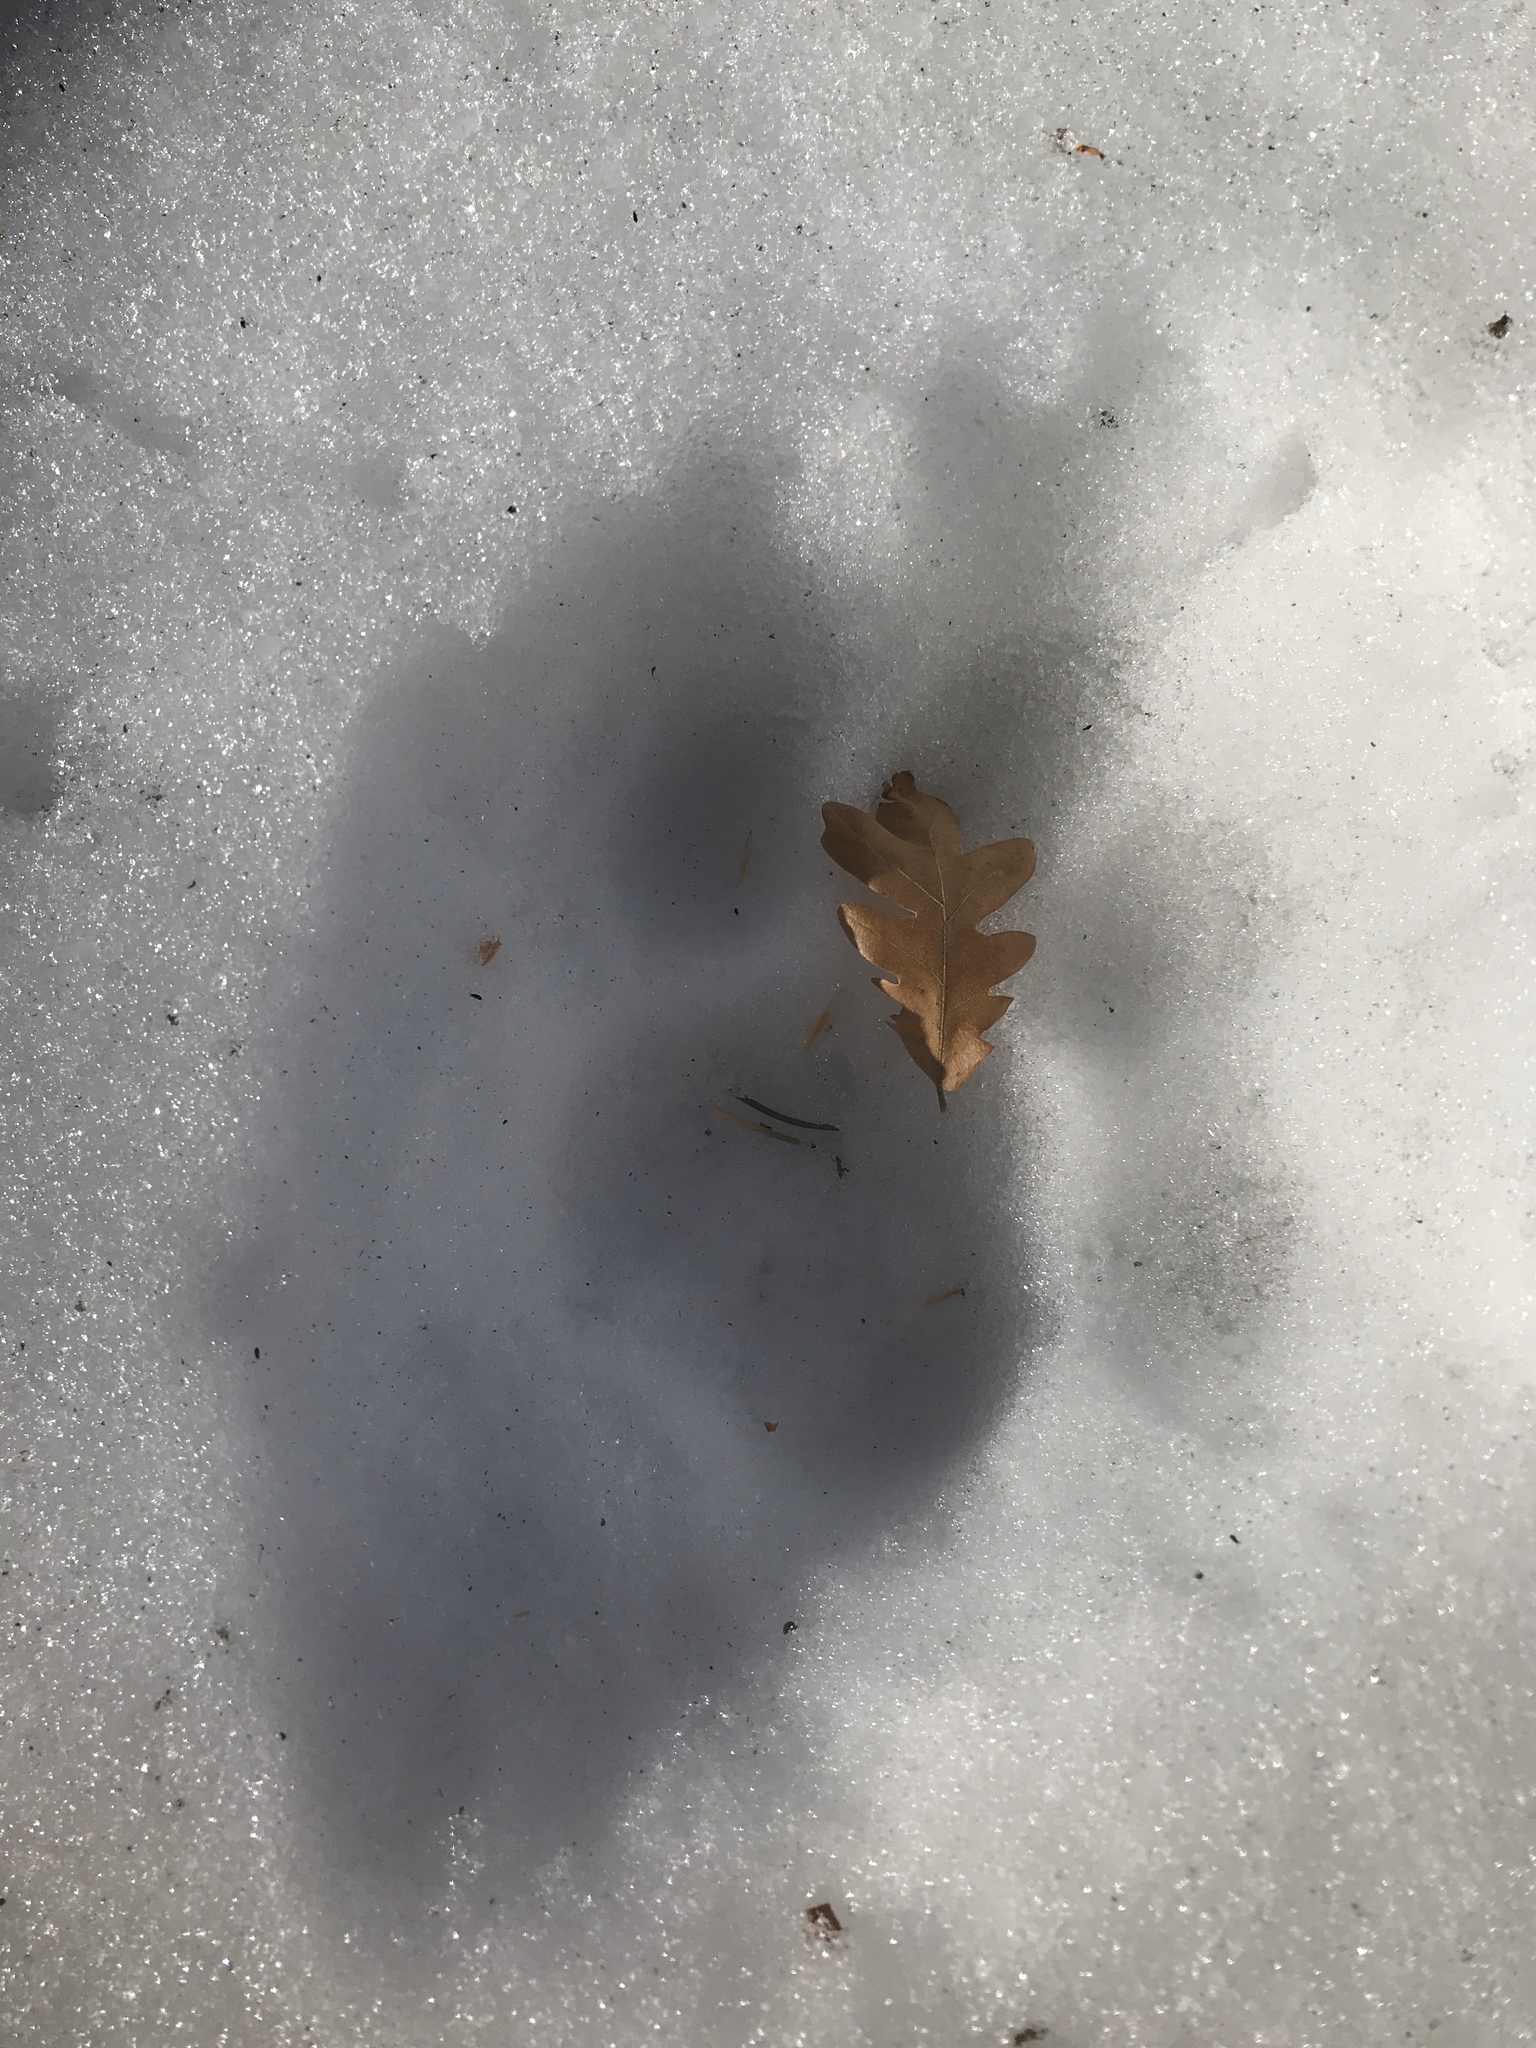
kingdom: Animalia
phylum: Chordata
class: Mammalia
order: Carnivora
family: Felidae
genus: Puma
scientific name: Puma concolor
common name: Puma
